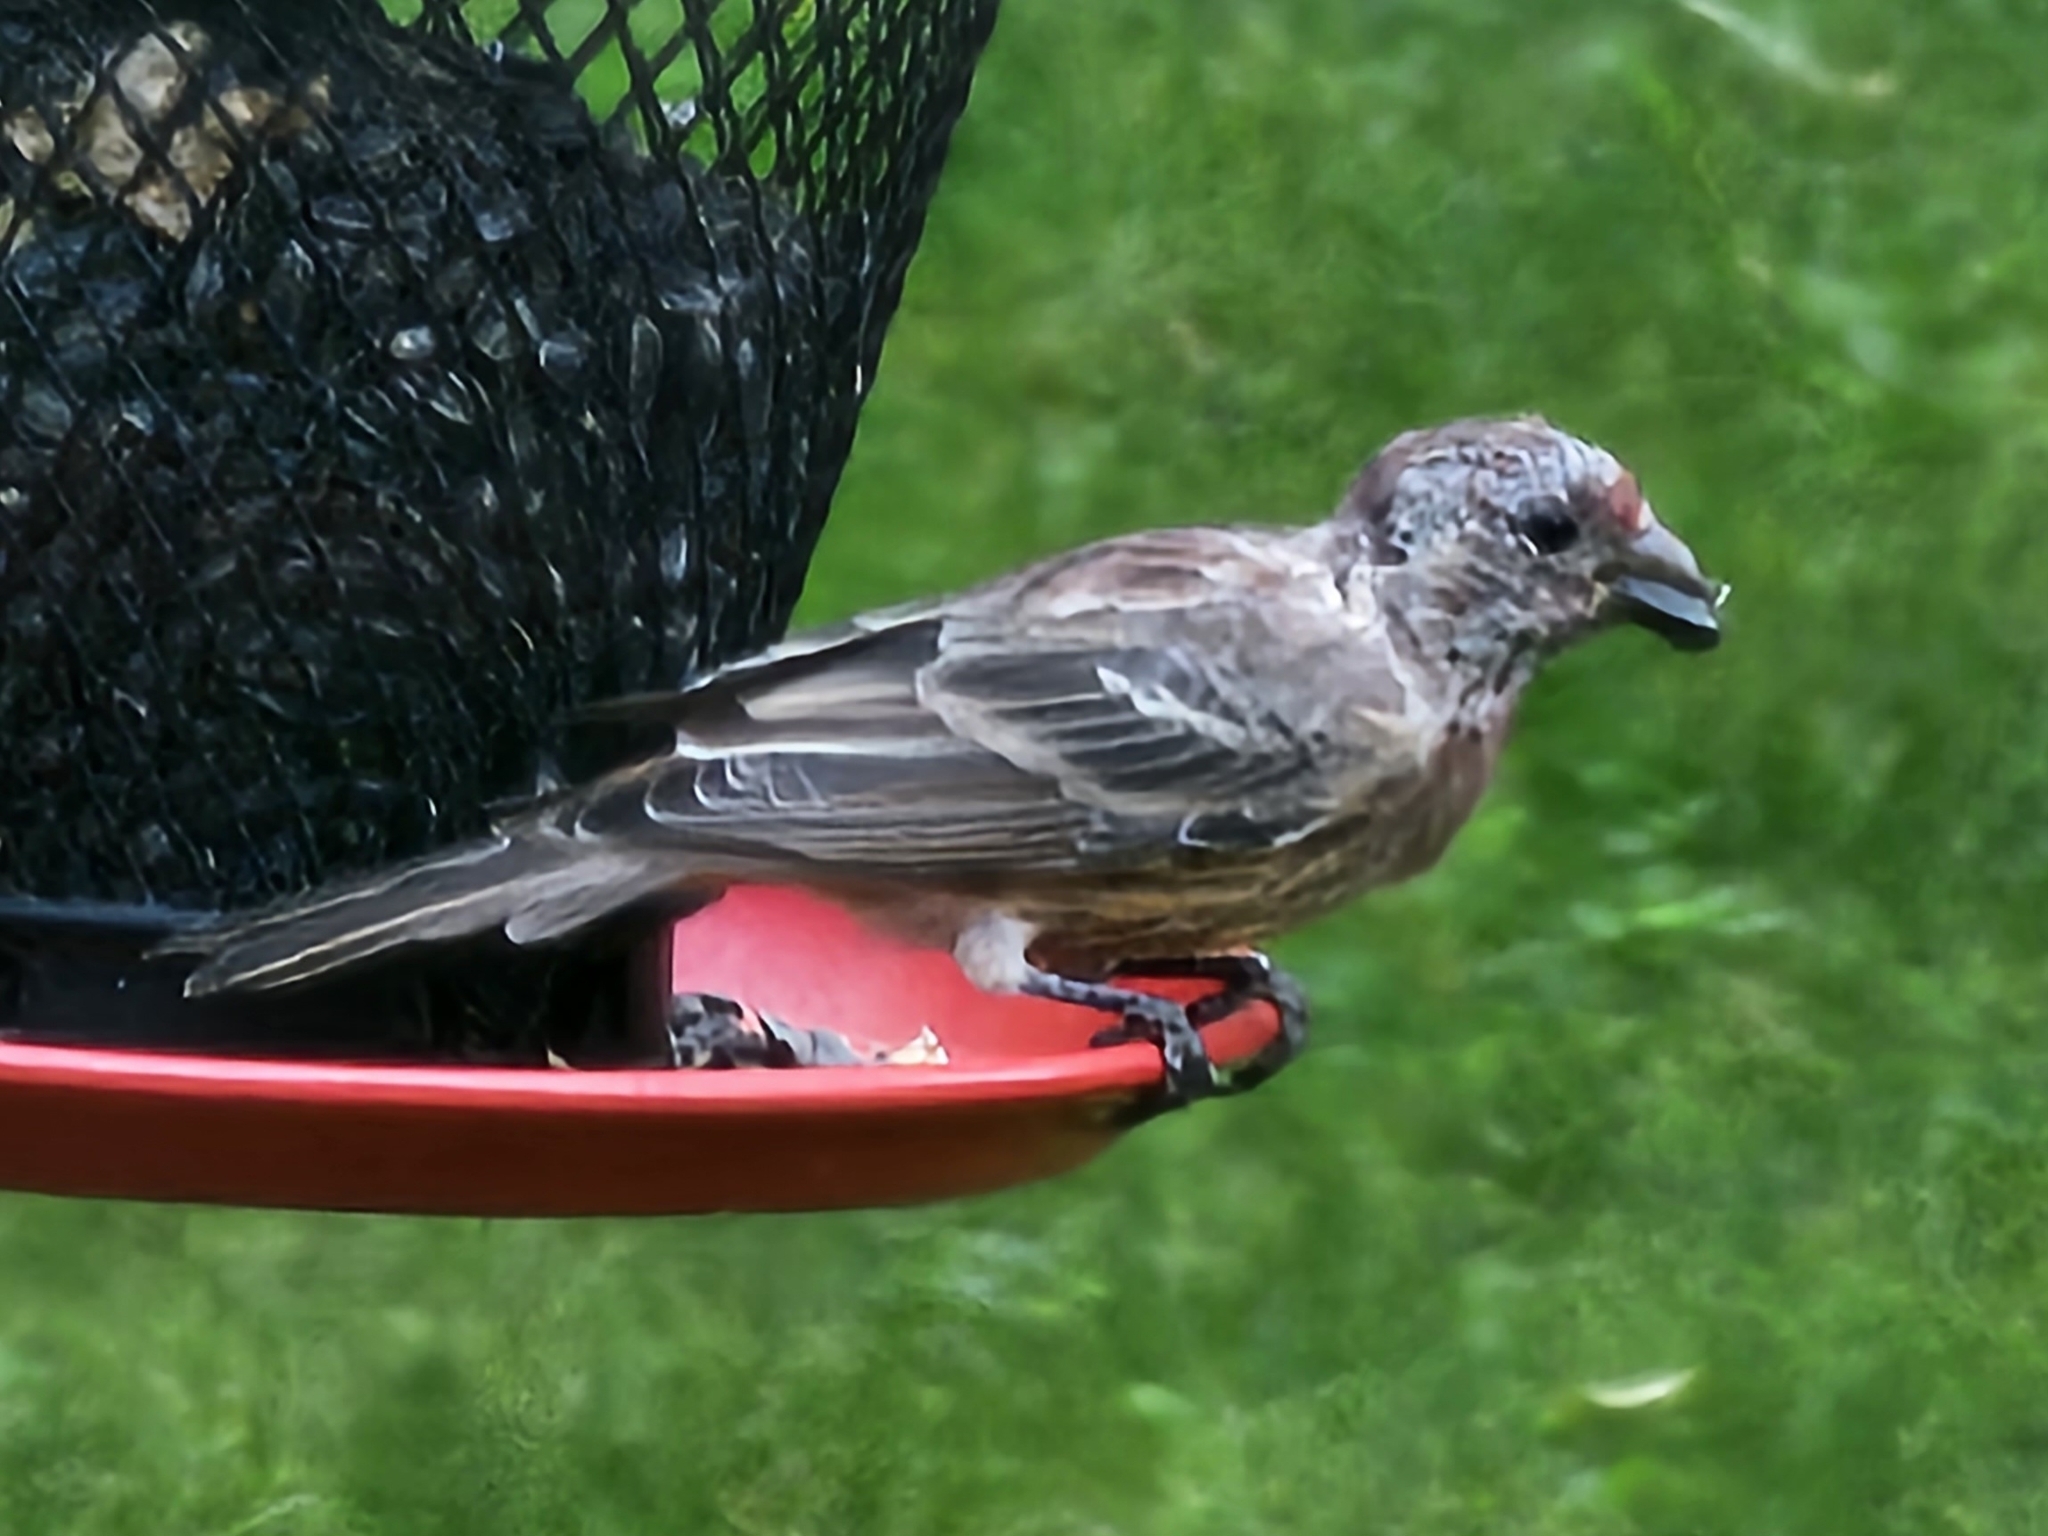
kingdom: Animalia
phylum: Chordata
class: Aves
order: Passeriformes
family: Fringillidae
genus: Haemorhous
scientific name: Haemorhous mexicanus
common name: House finch
